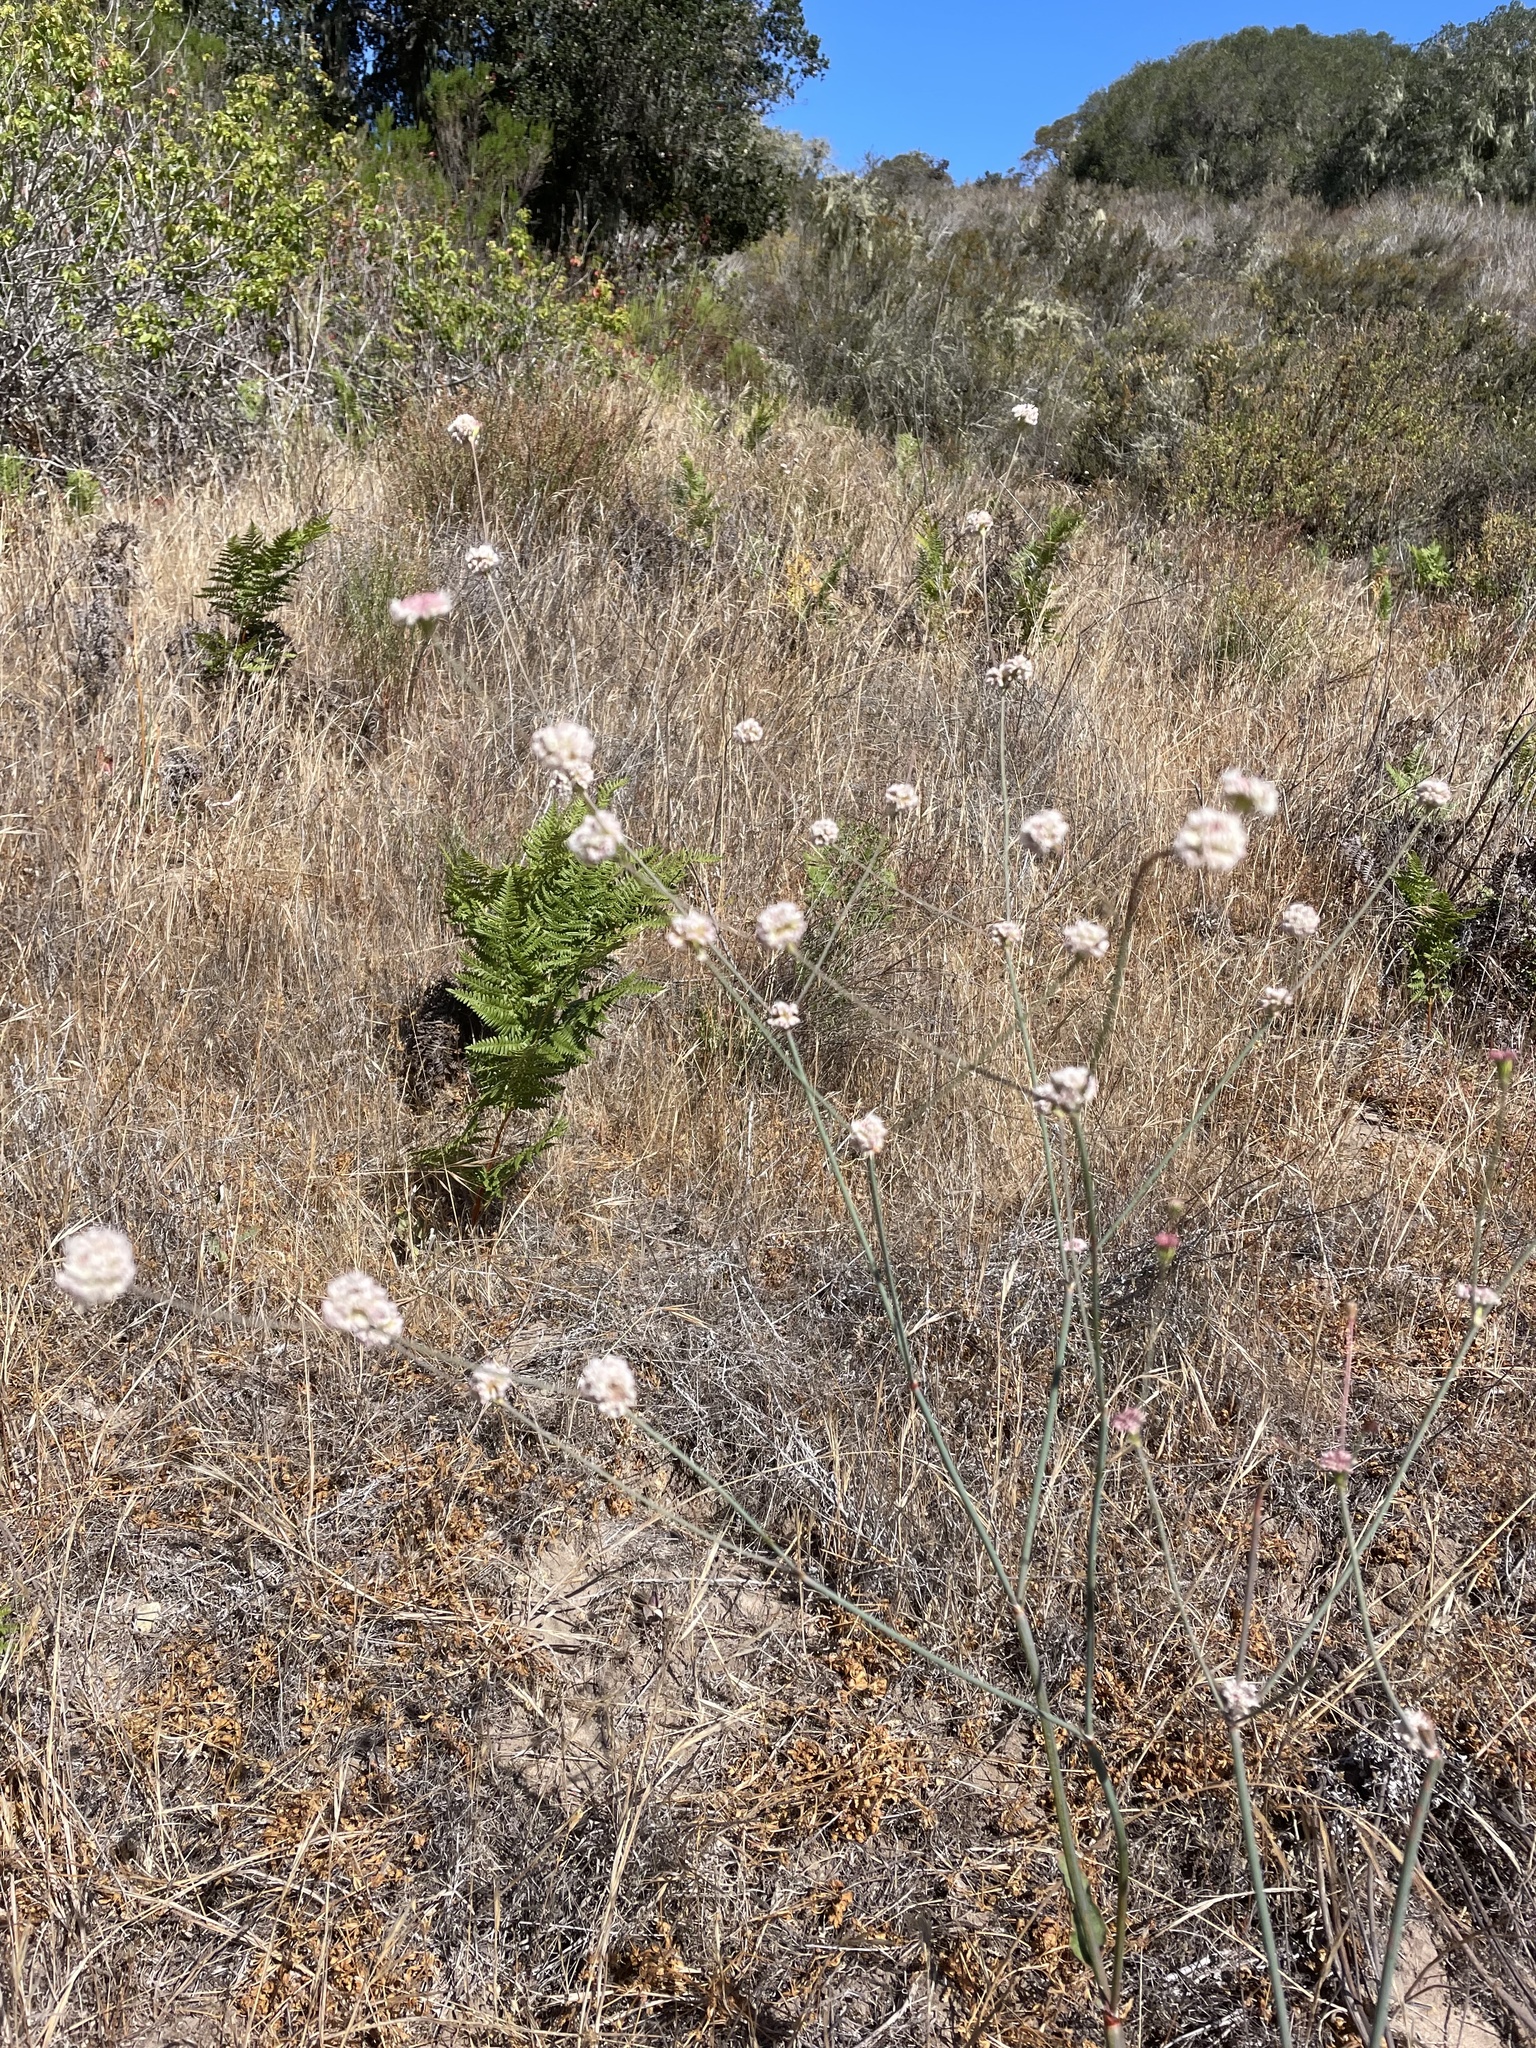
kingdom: Plantae
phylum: Tracheophyta
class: Magnoliopsida
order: Caryophyllales
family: Polygonaceae
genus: Eriogonum
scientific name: Eriogonum nudum
